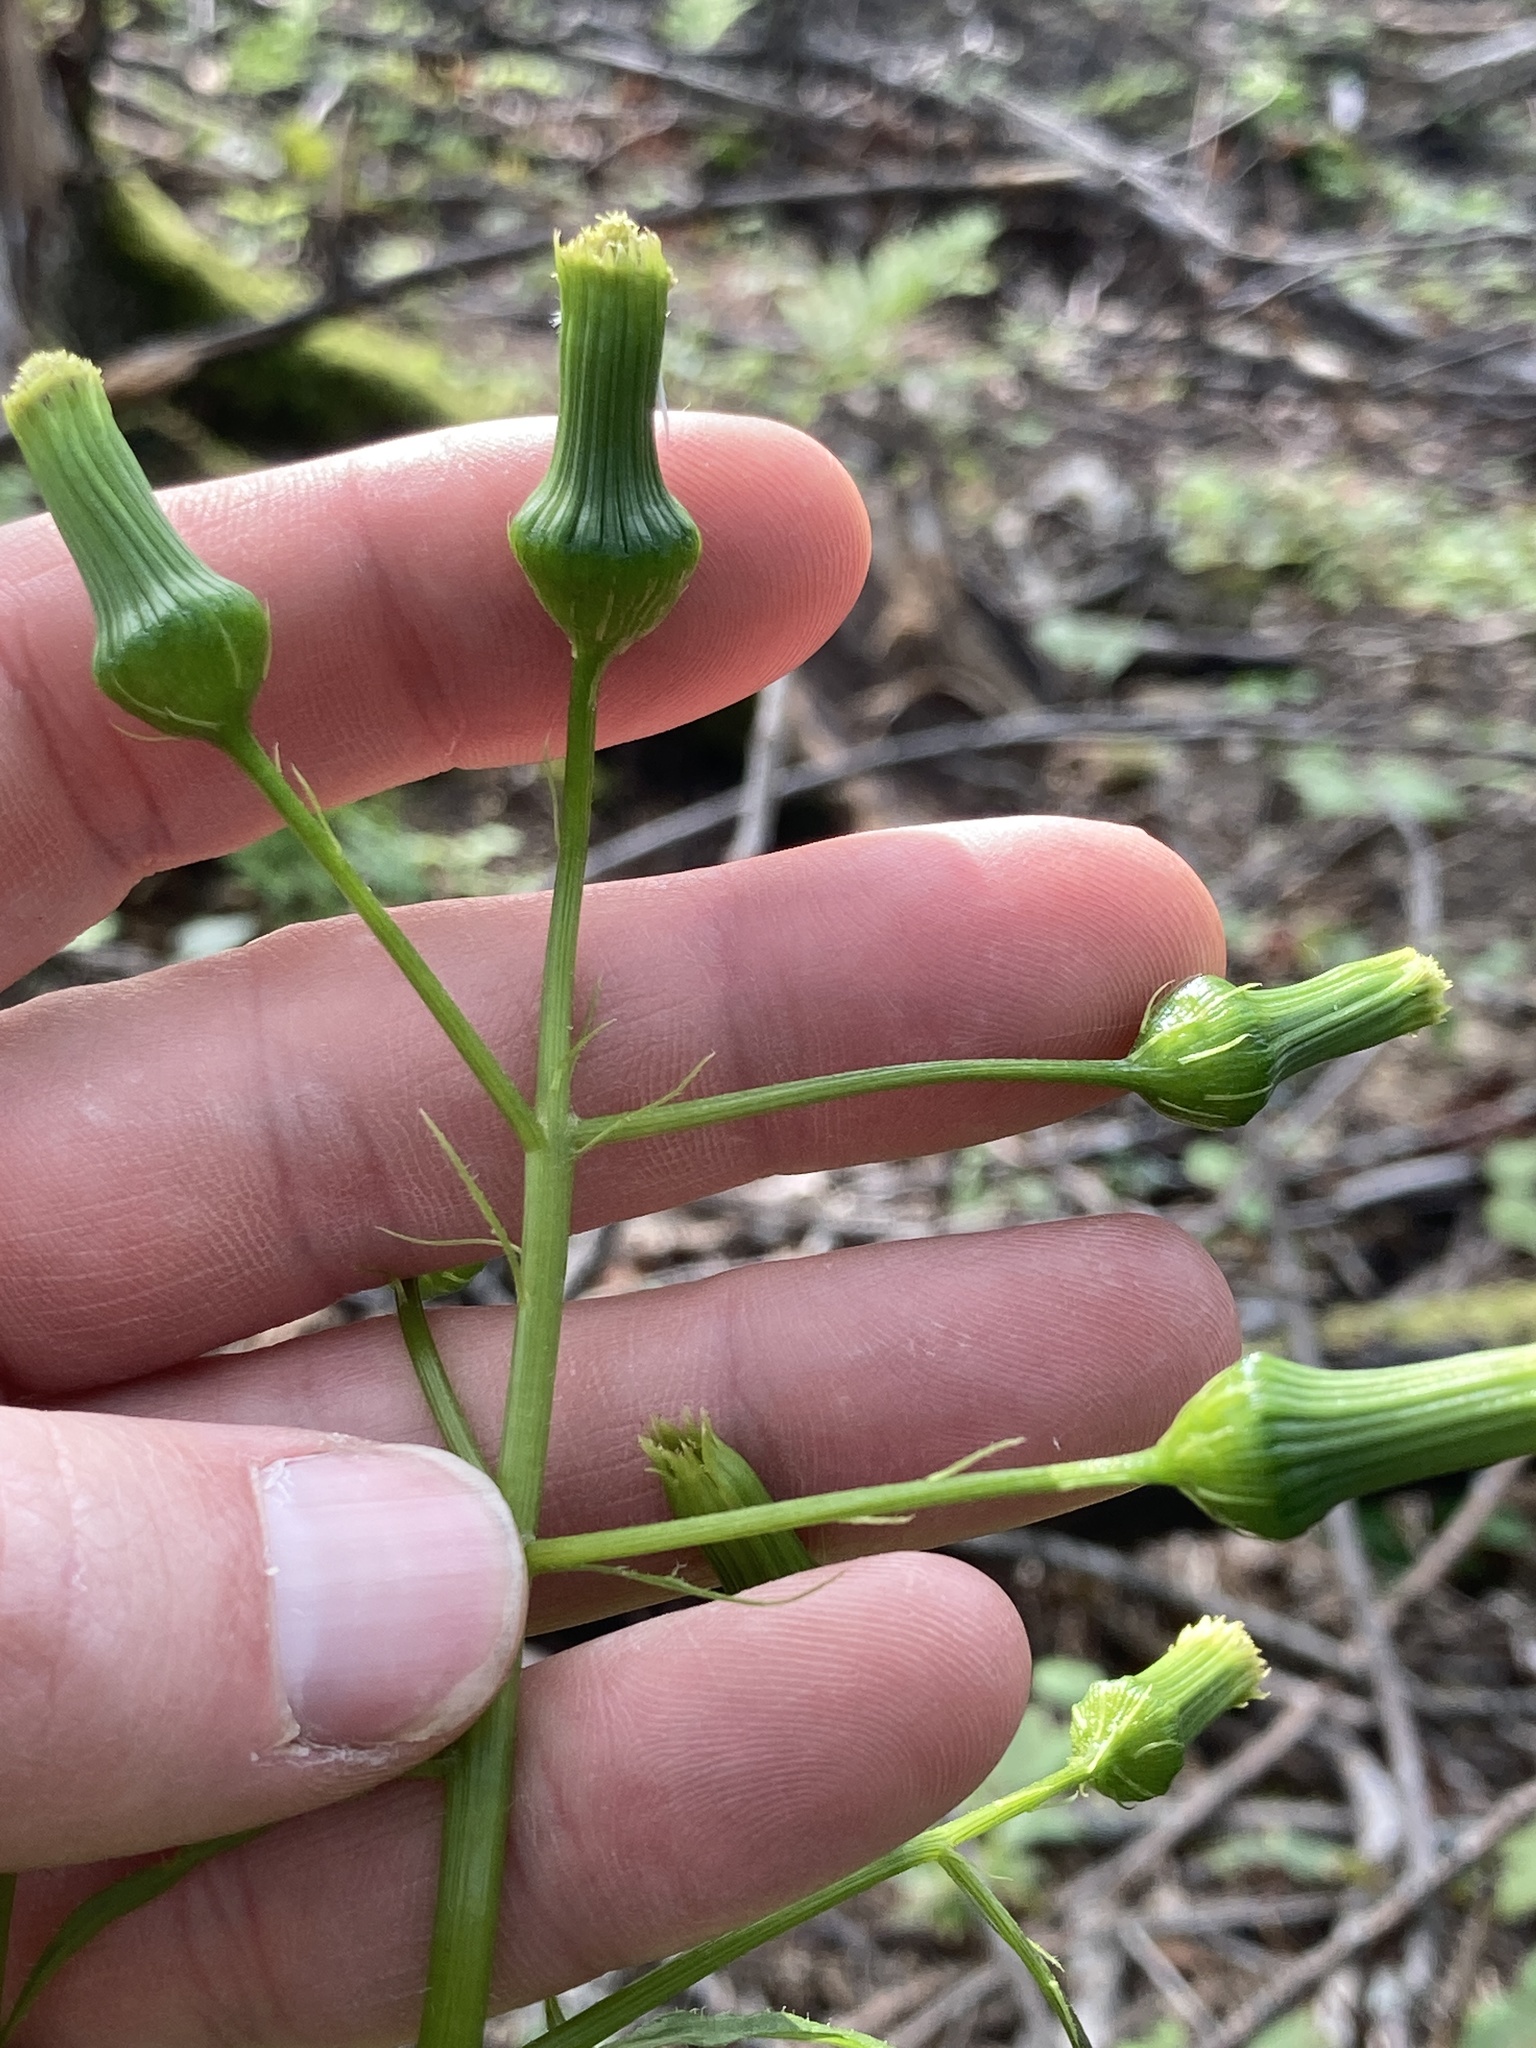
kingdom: Plantae
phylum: Tracheophyta
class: Magnoliopsida
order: Asterales
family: Asteraceae
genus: Erechtites
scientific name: Erechtites hieraciifolius
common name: American burnweed
